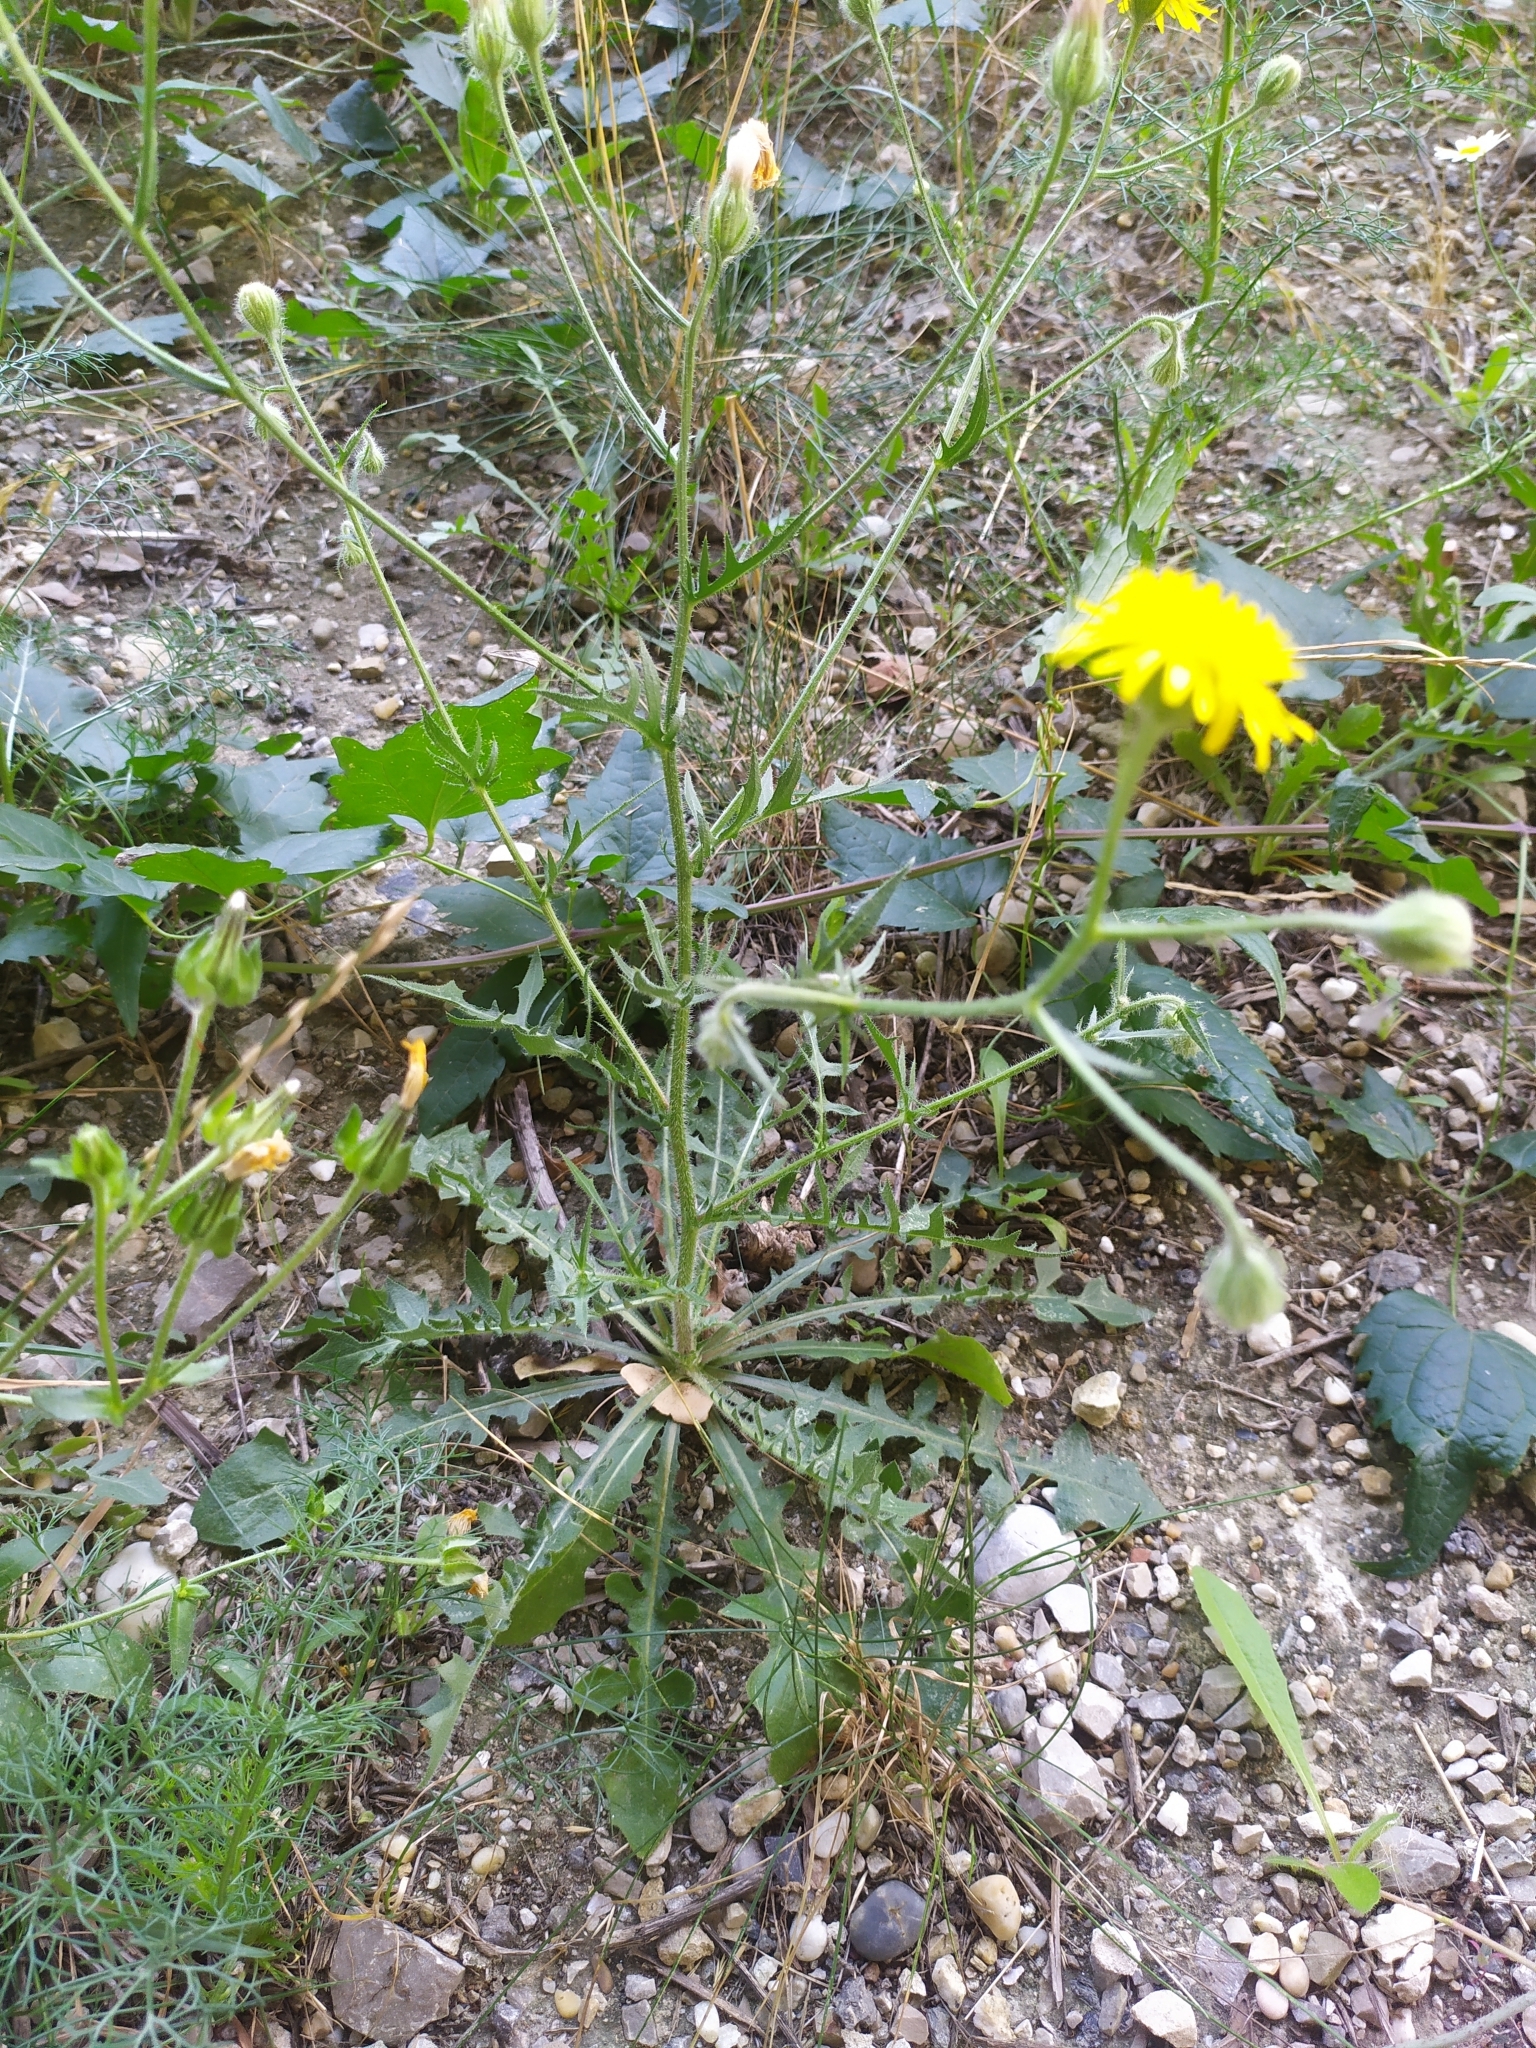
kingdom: Plantae
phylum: Tracheophyta
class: Magnoliopsida
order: Asterales
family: Asteraceae
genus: Crepis
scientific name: Crepis foetida
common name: Stinking hawk's-beard
